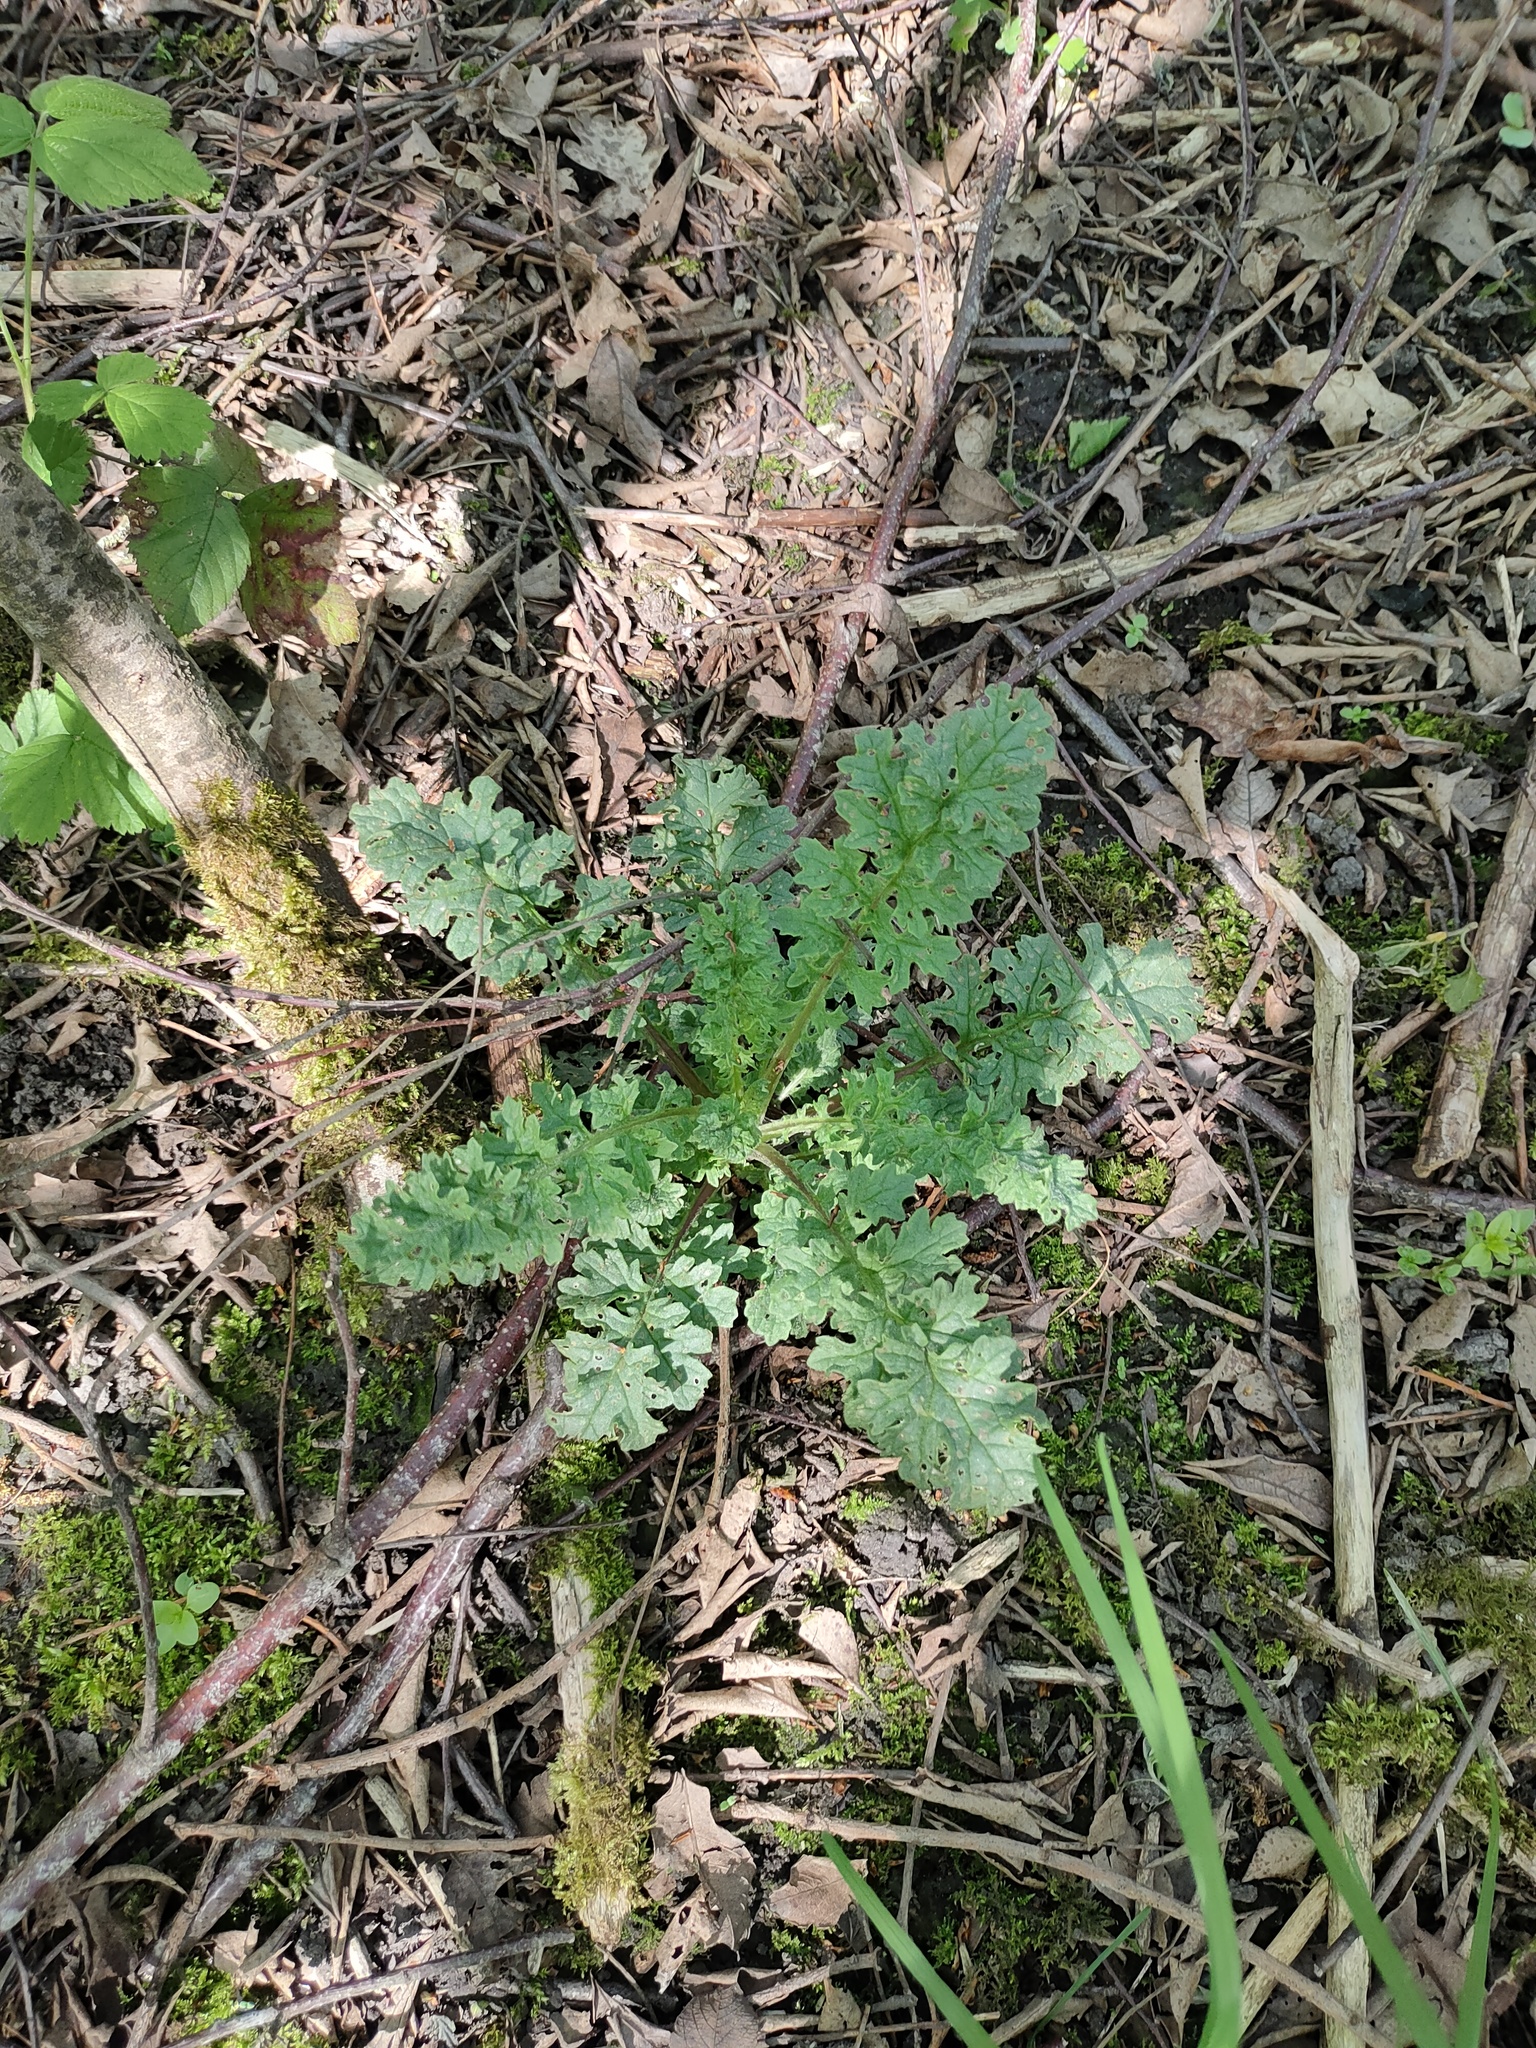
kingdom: Plantae
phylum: Tracheophyta
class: Magnoliopsida
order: Asterales
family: Asteraceae
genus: Jacobaea
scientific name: Jacobaea vulgaris
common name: Stinking willie
